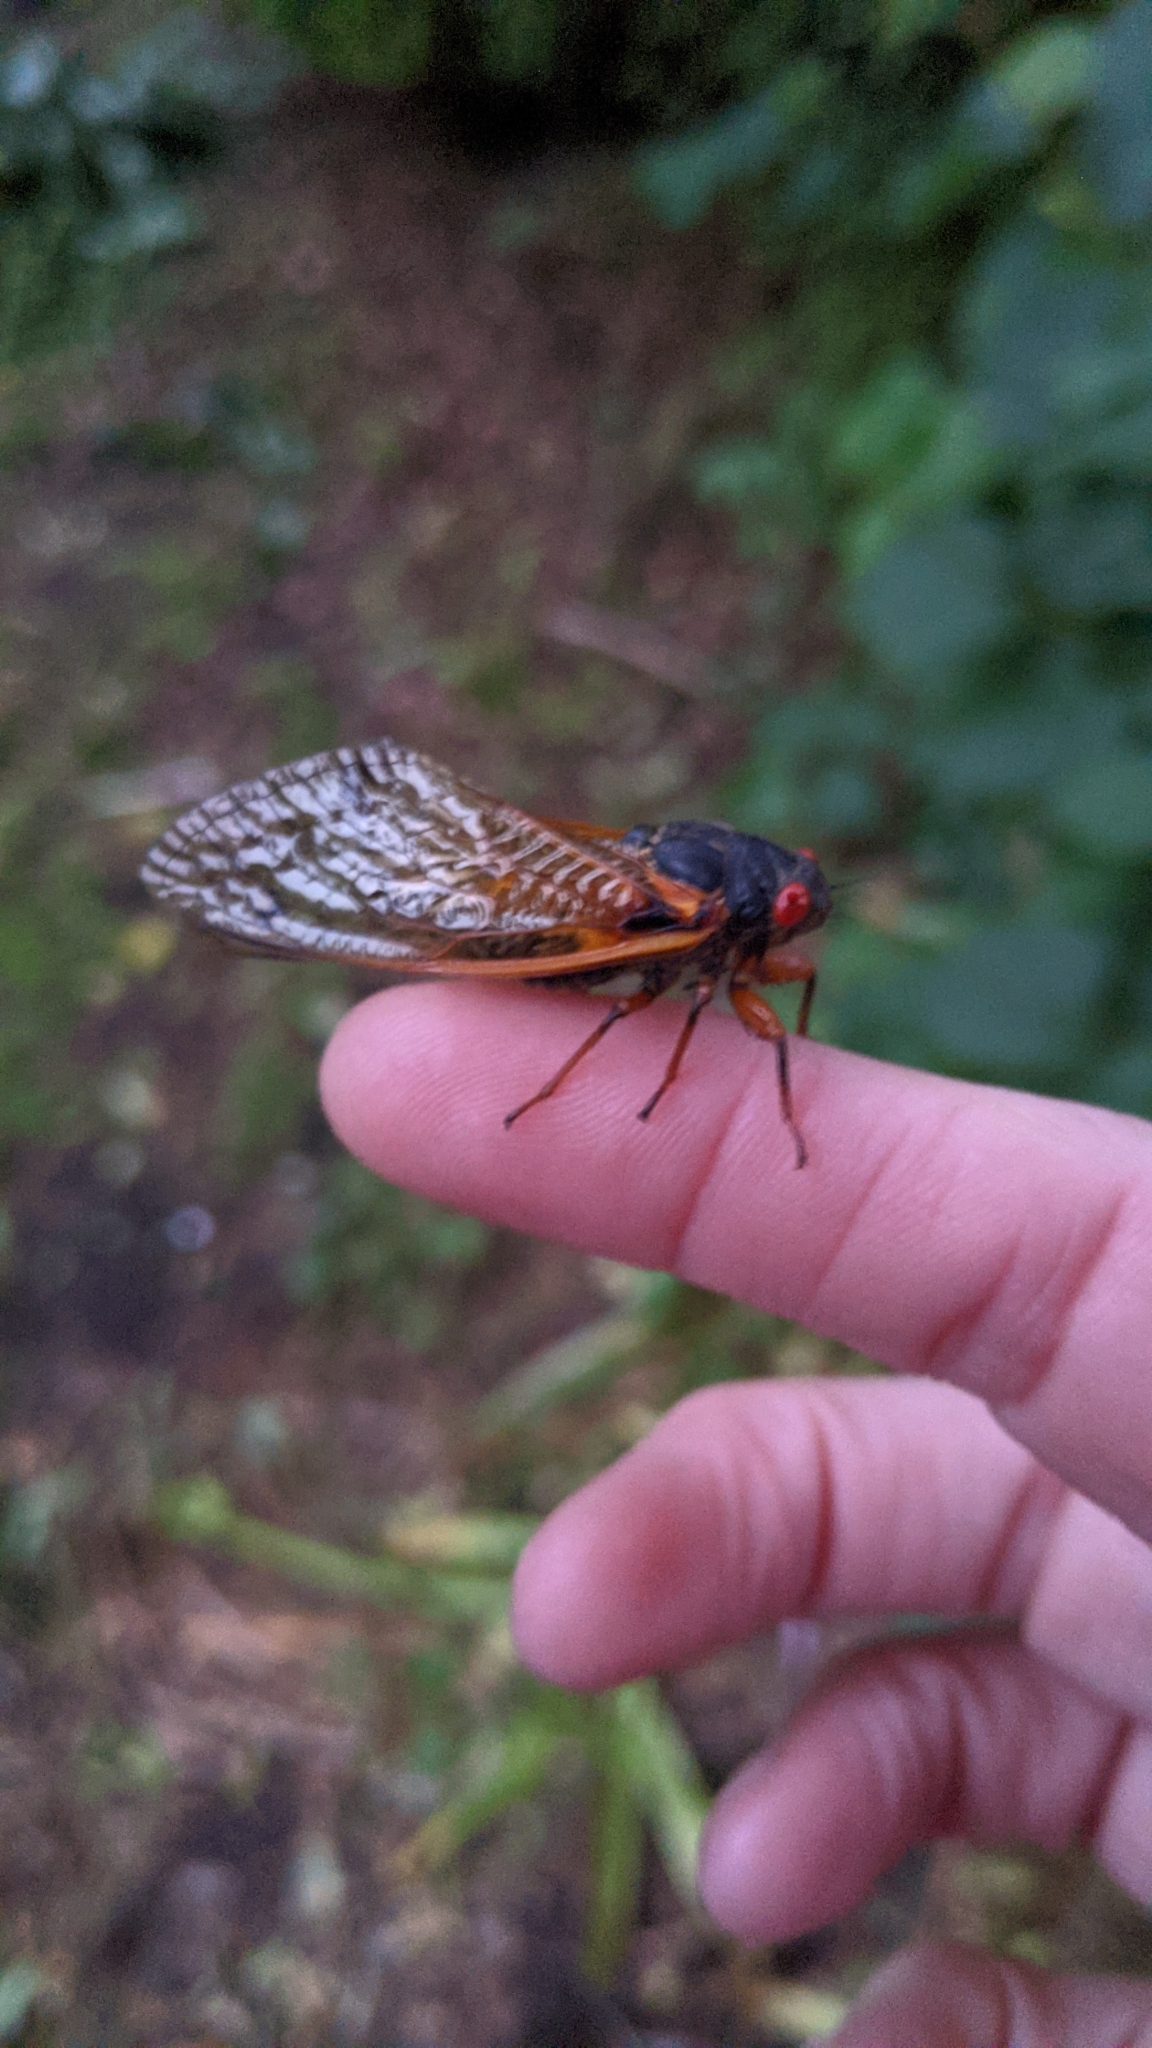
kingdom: Animalia
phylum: Arthropoda
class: Insecta
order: Hemiptera
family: Cicadidae
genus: Magicicada
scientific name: Magicicada cassini
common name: Cassin's 17-year cicada
